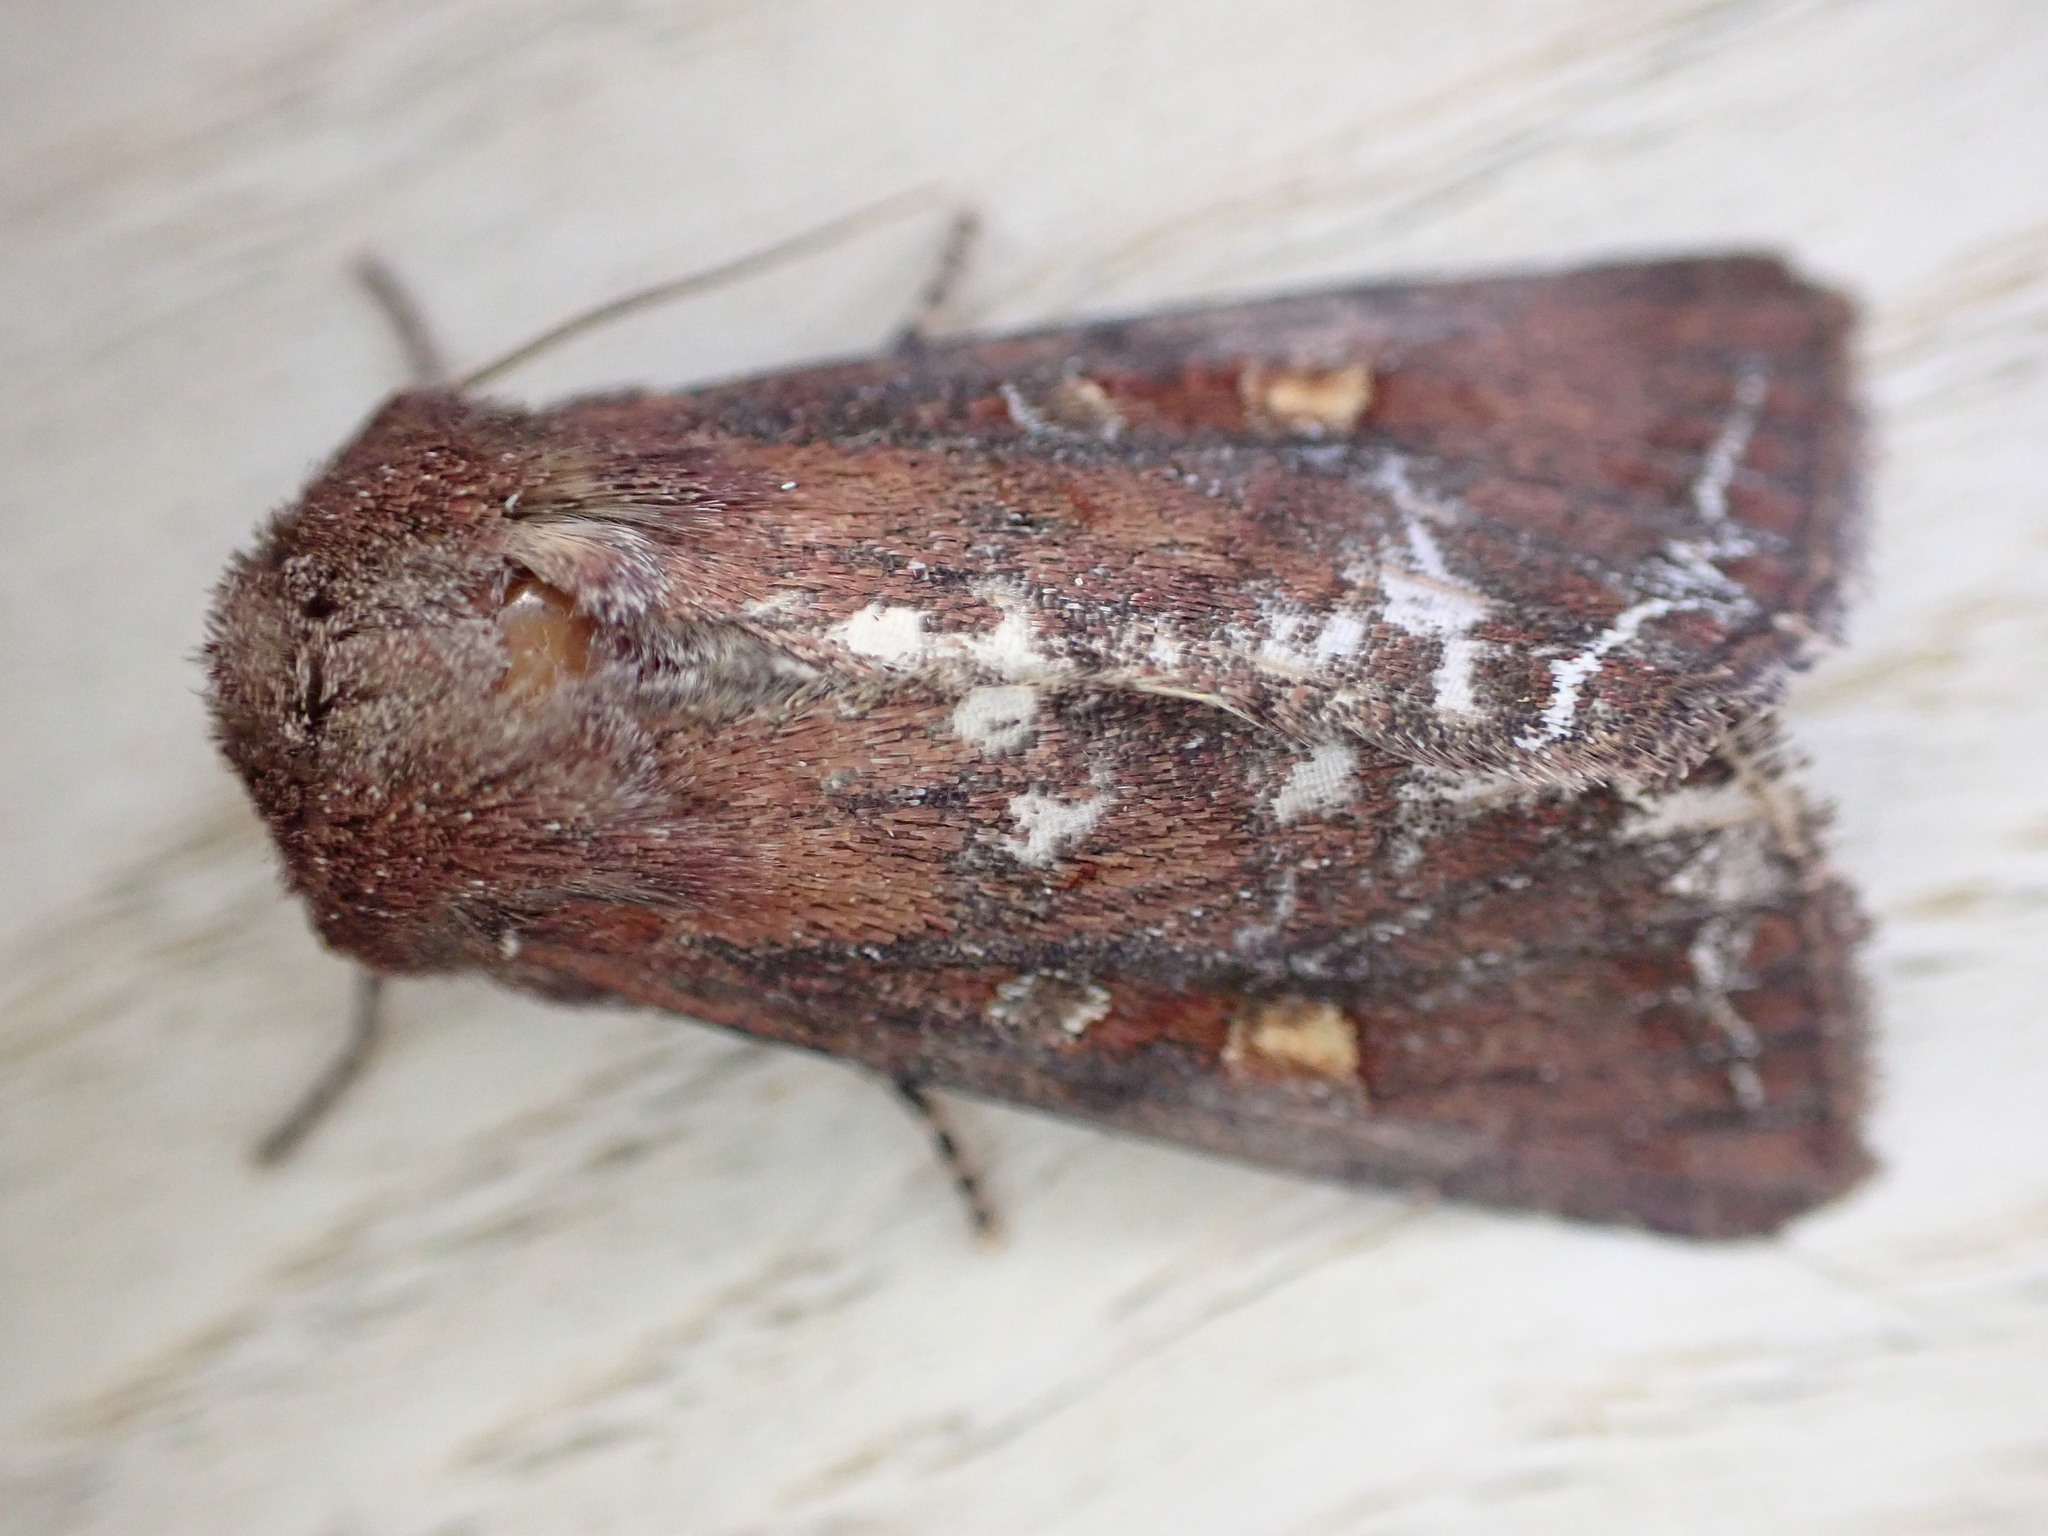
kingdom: Animalia
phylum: Arthropoda
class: Insecta
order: Lepidoptera
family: Noctuidae
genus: Lacanobia
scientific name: Lacanobia oleracea
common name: Bright-line brown-eye
